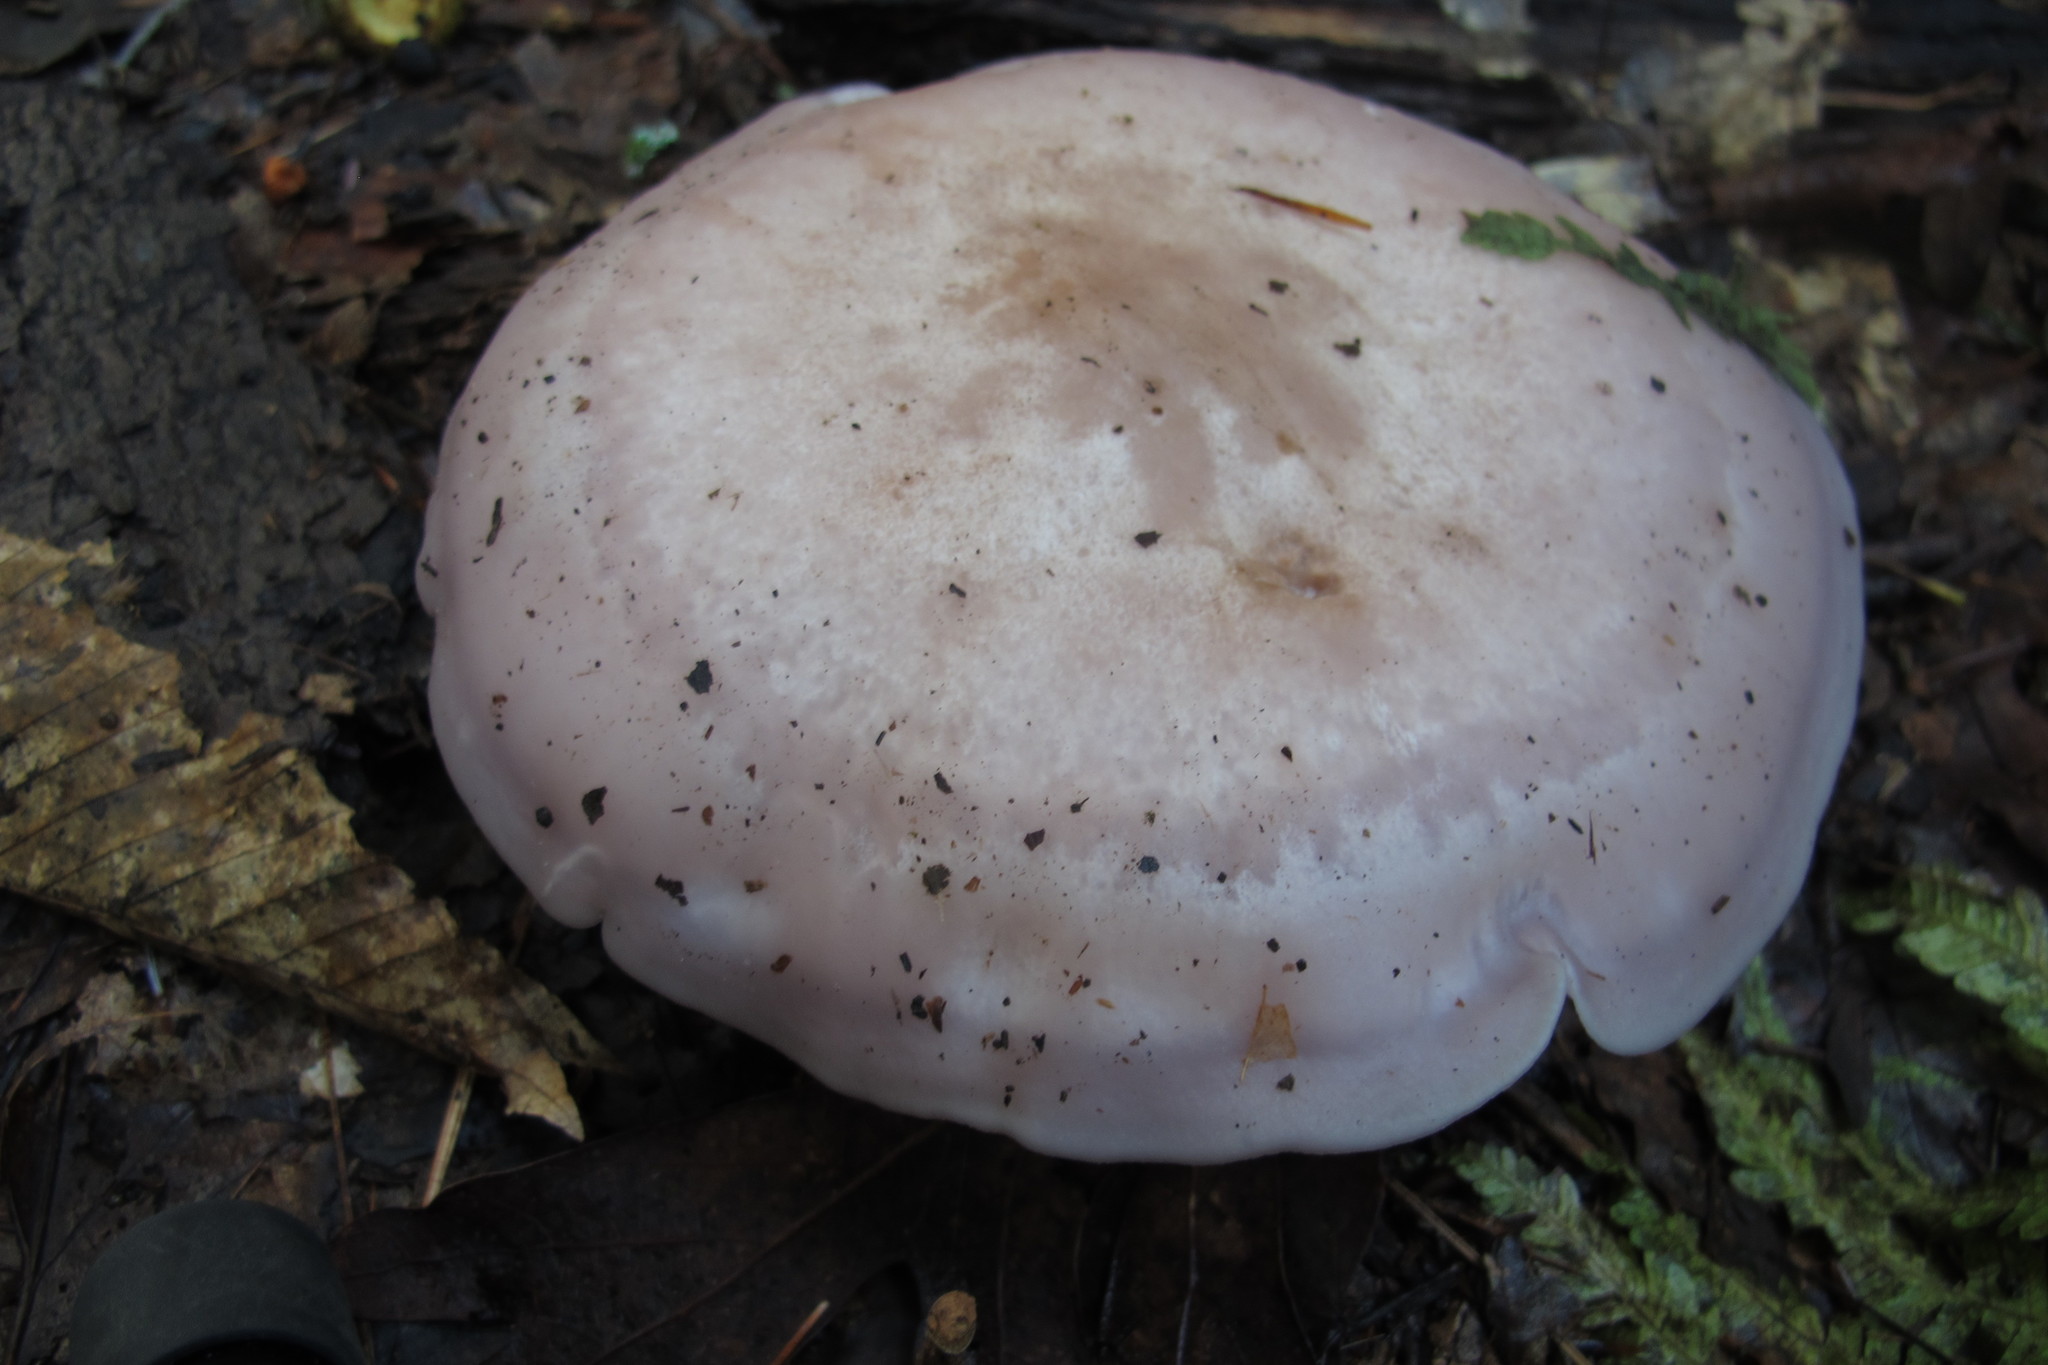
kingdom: Fungi
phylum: Basidiomycota
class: Agaricomycetes
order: Agaricales
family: Tricholomataceae
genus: Collybia
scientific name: Collybia
